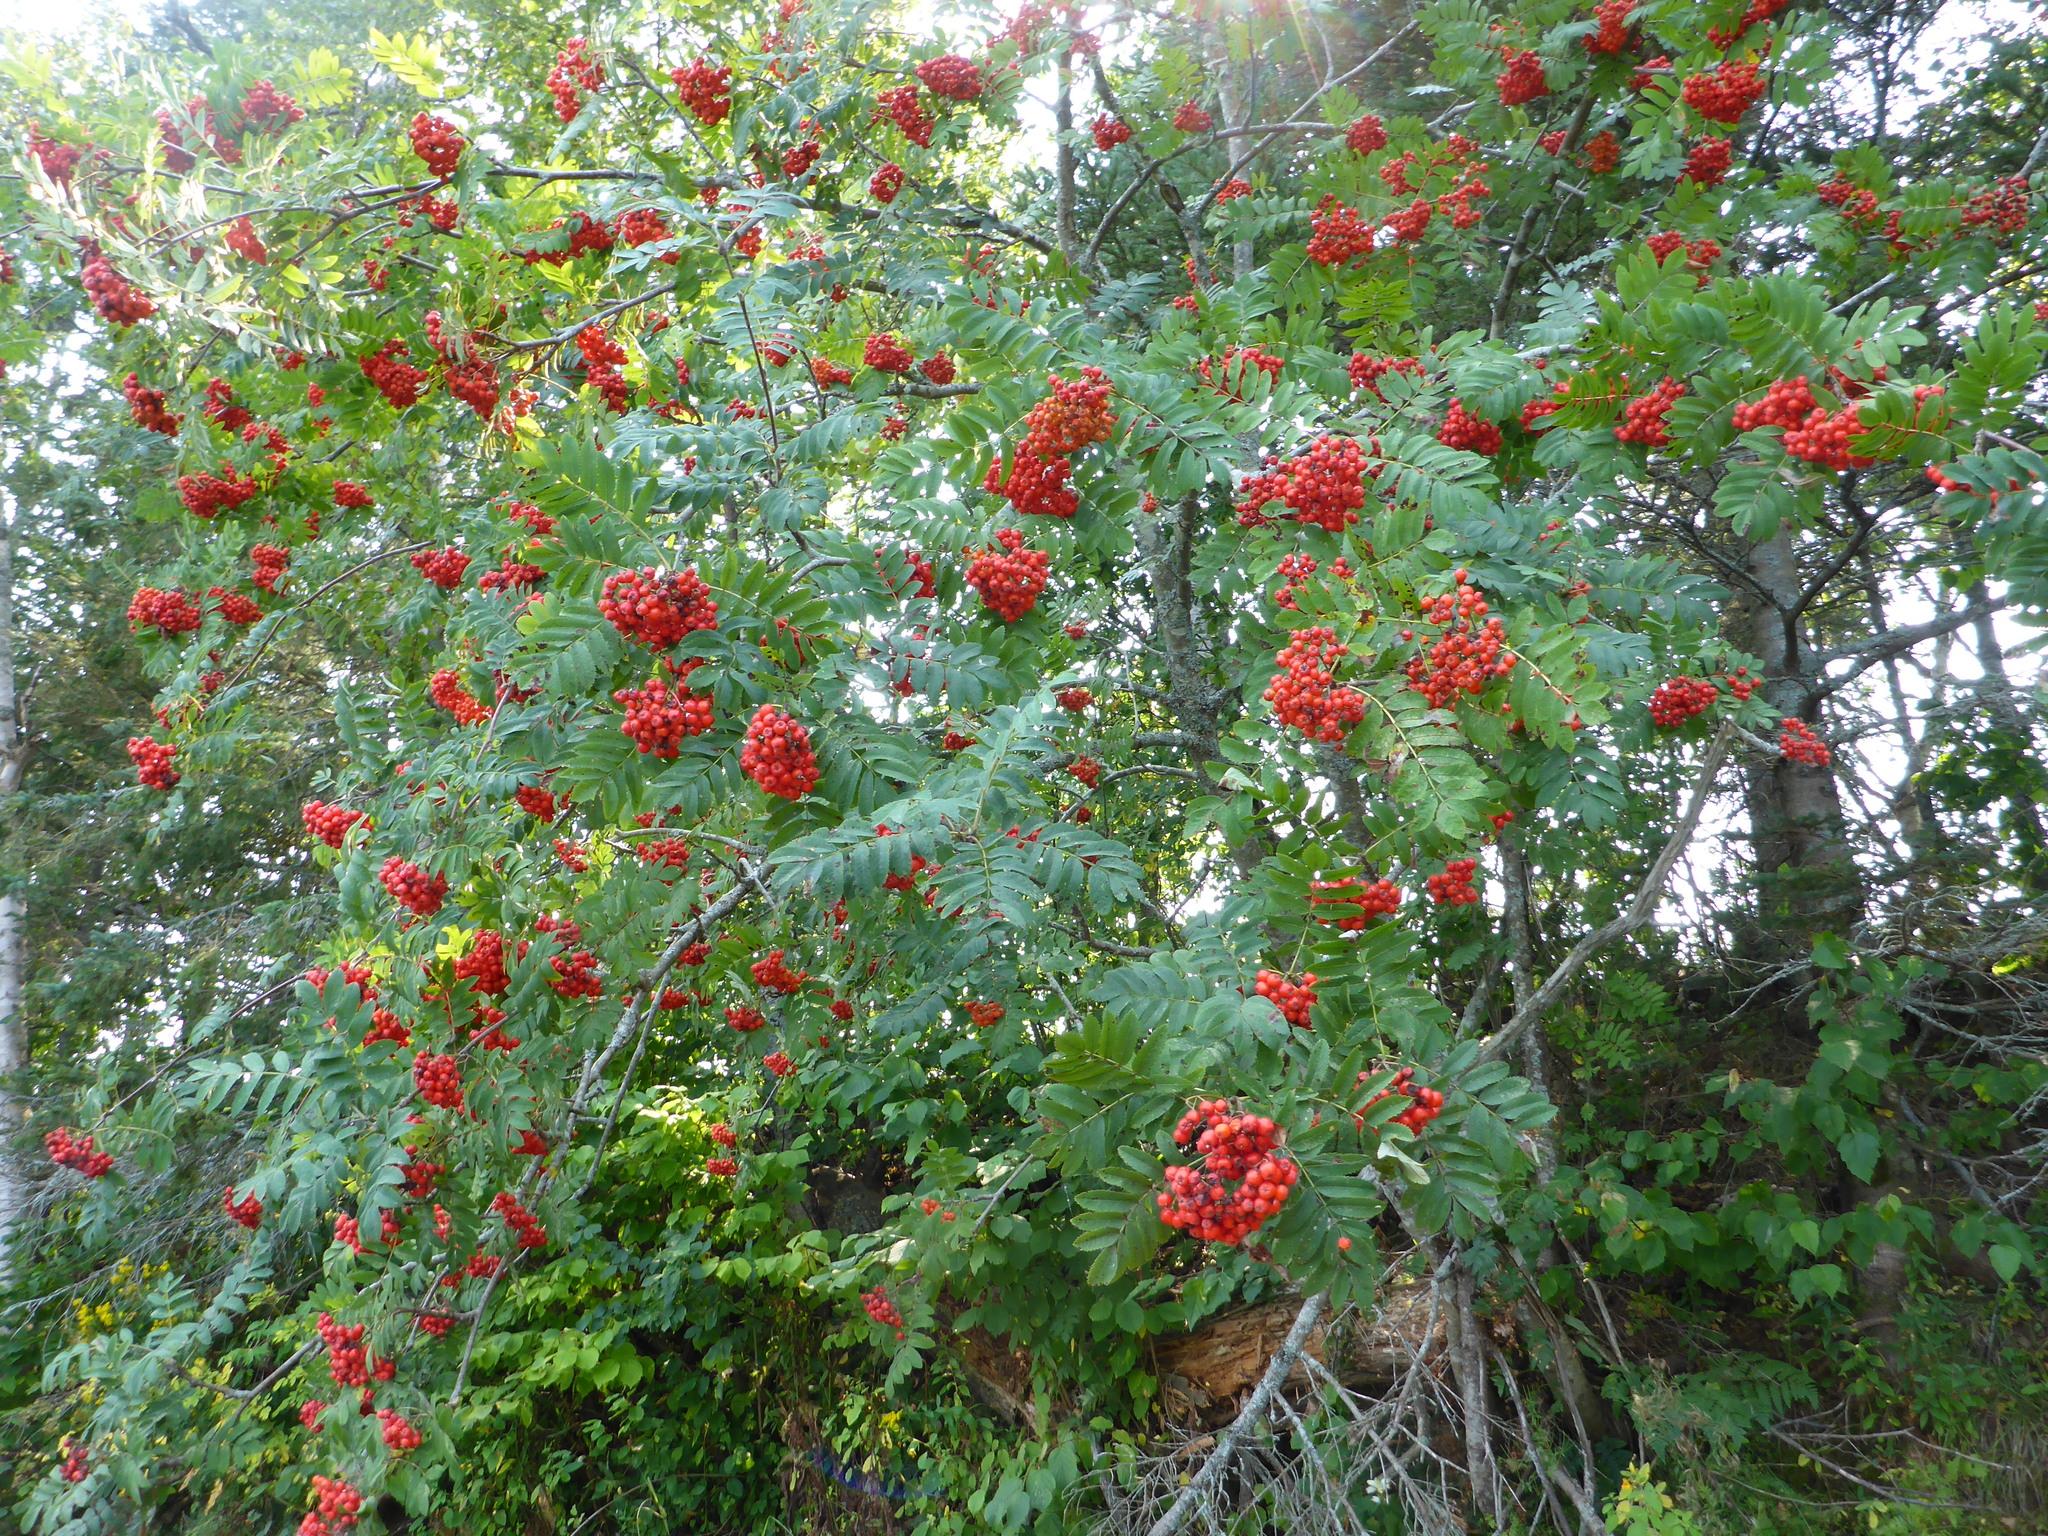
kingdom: Plantae
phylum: Tracheophyta
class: Magnoliopsida
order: Rosales
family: Rosaceae
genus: Sorbus
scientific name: Sorbus aucuparia
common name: Rowan
